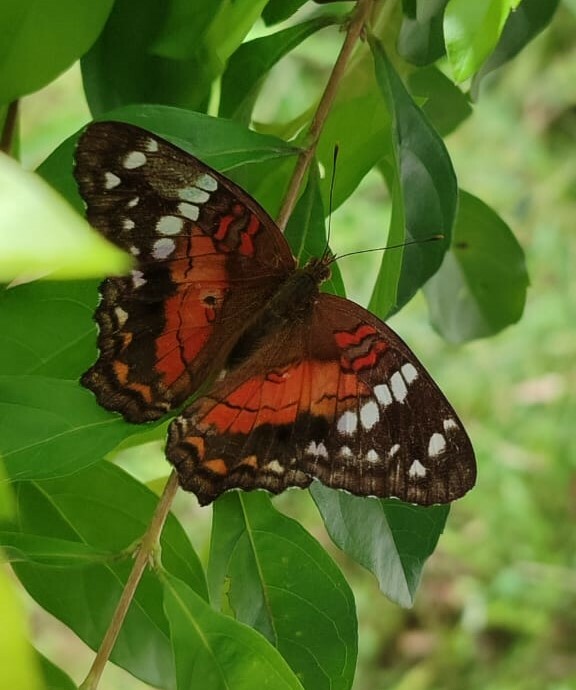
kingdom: Animalia
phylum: Arthropoda
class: Insecta
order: Lepidoptera
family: Nymphalidae
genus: Anartia
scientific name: Anartia amathea
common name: Red peacock
